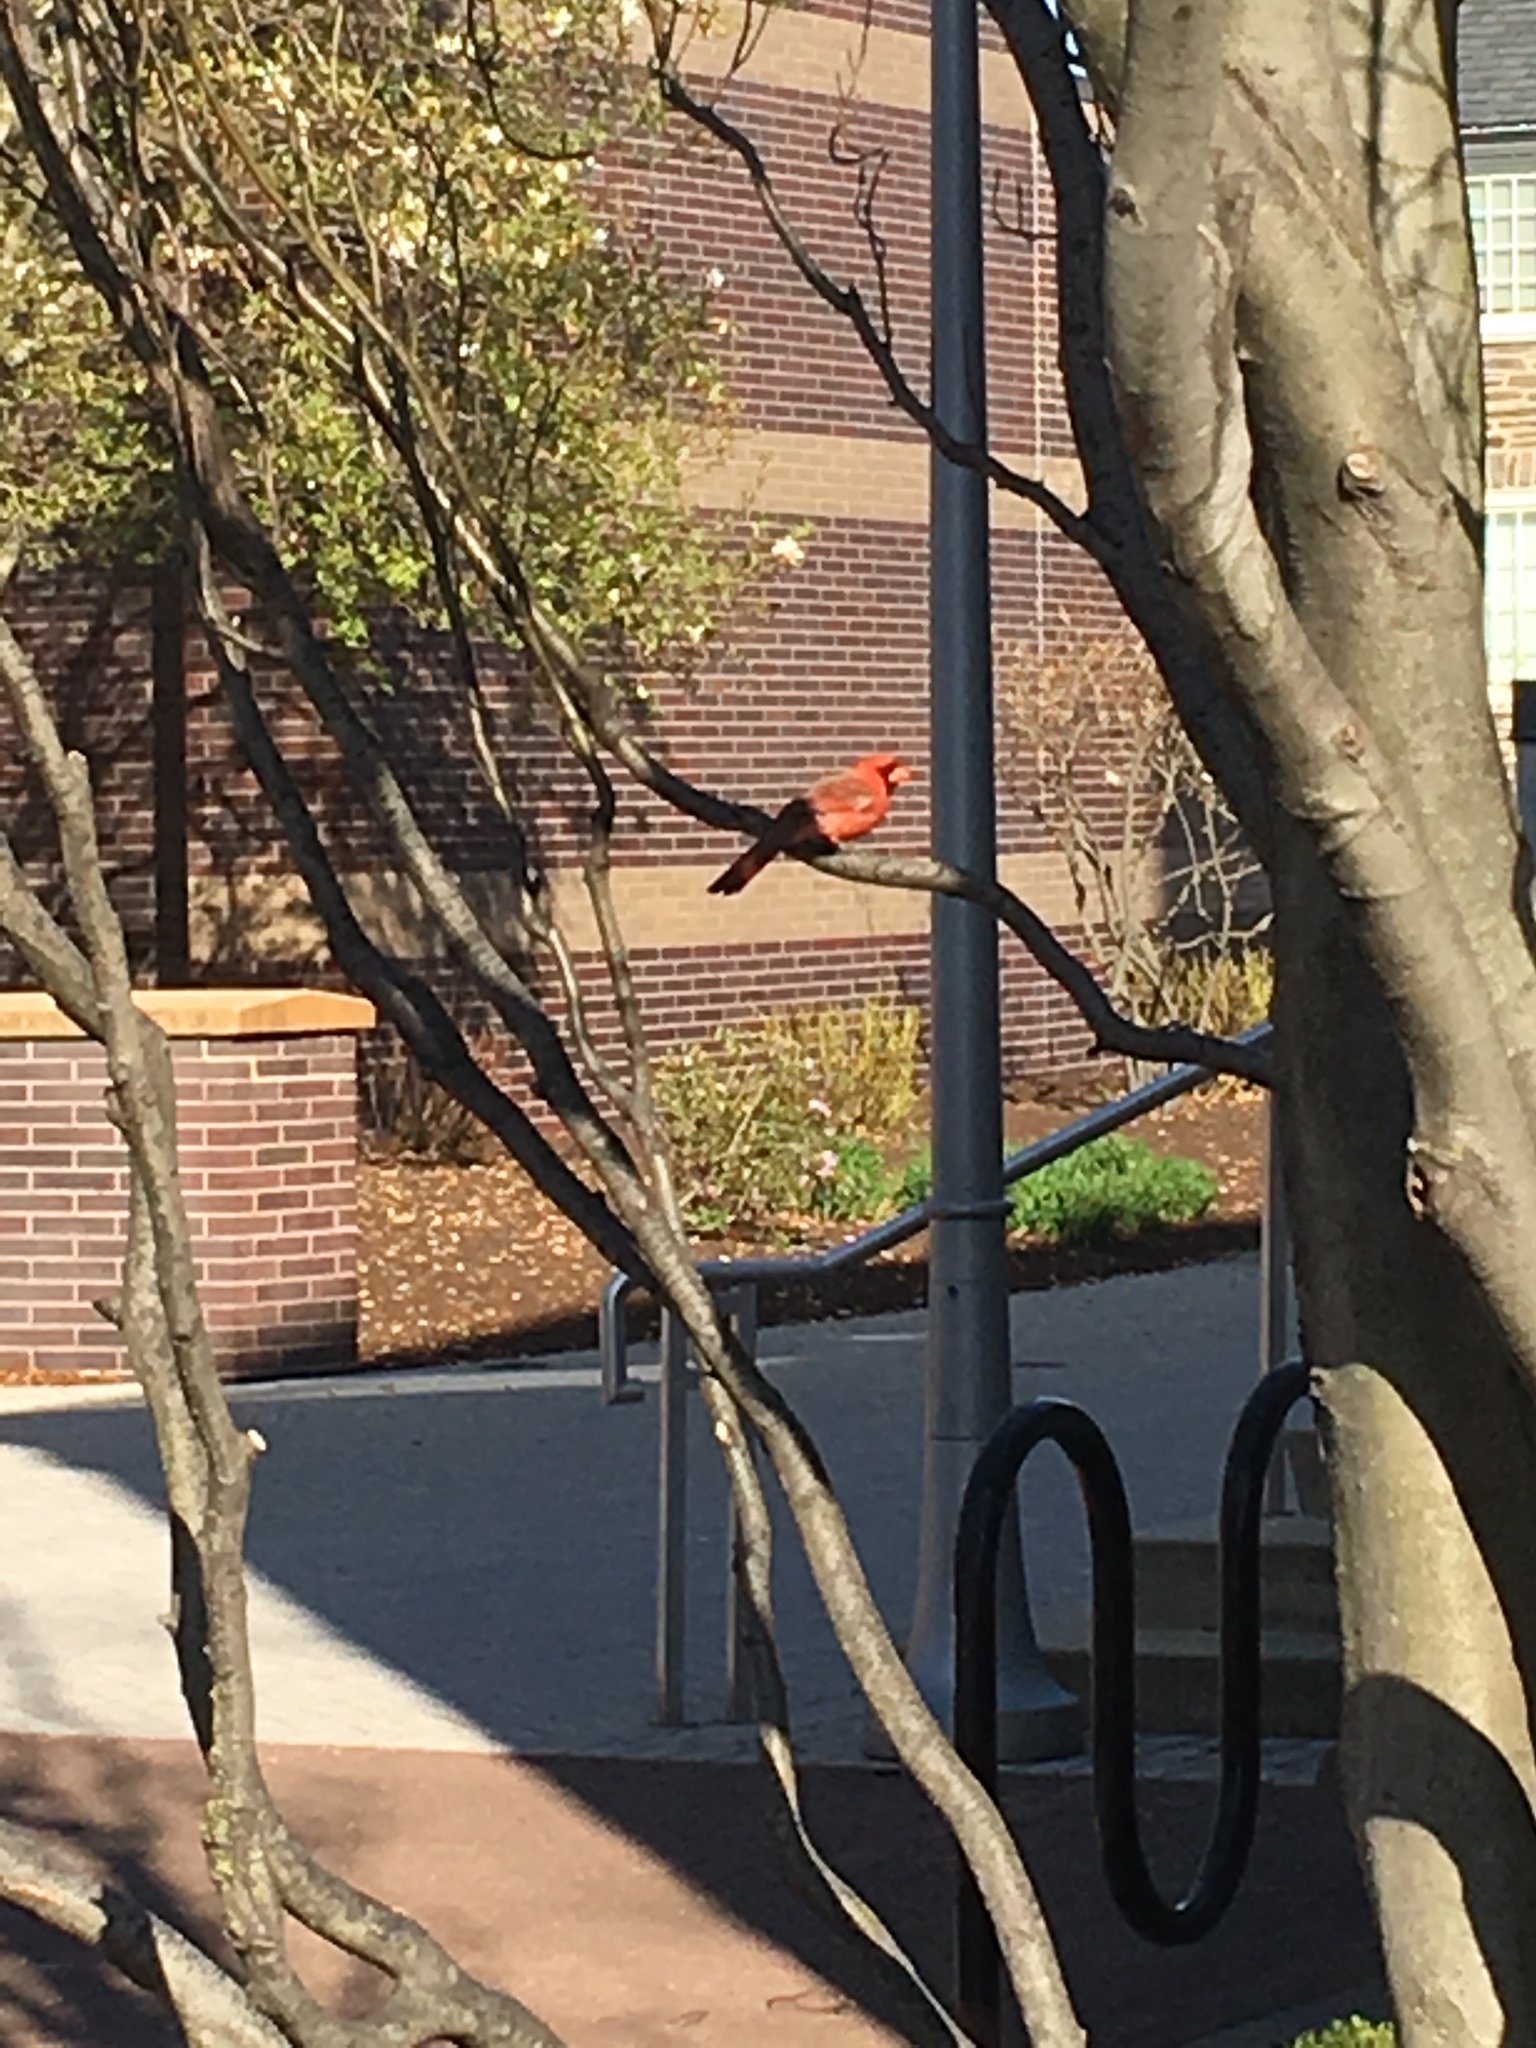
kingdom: Animalia
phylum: Chordata
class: Aves
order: Passeriformes
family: Cardinalidae
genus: Cardinalis
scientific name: Cardinalis cardinalis
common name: Northern cardinal
